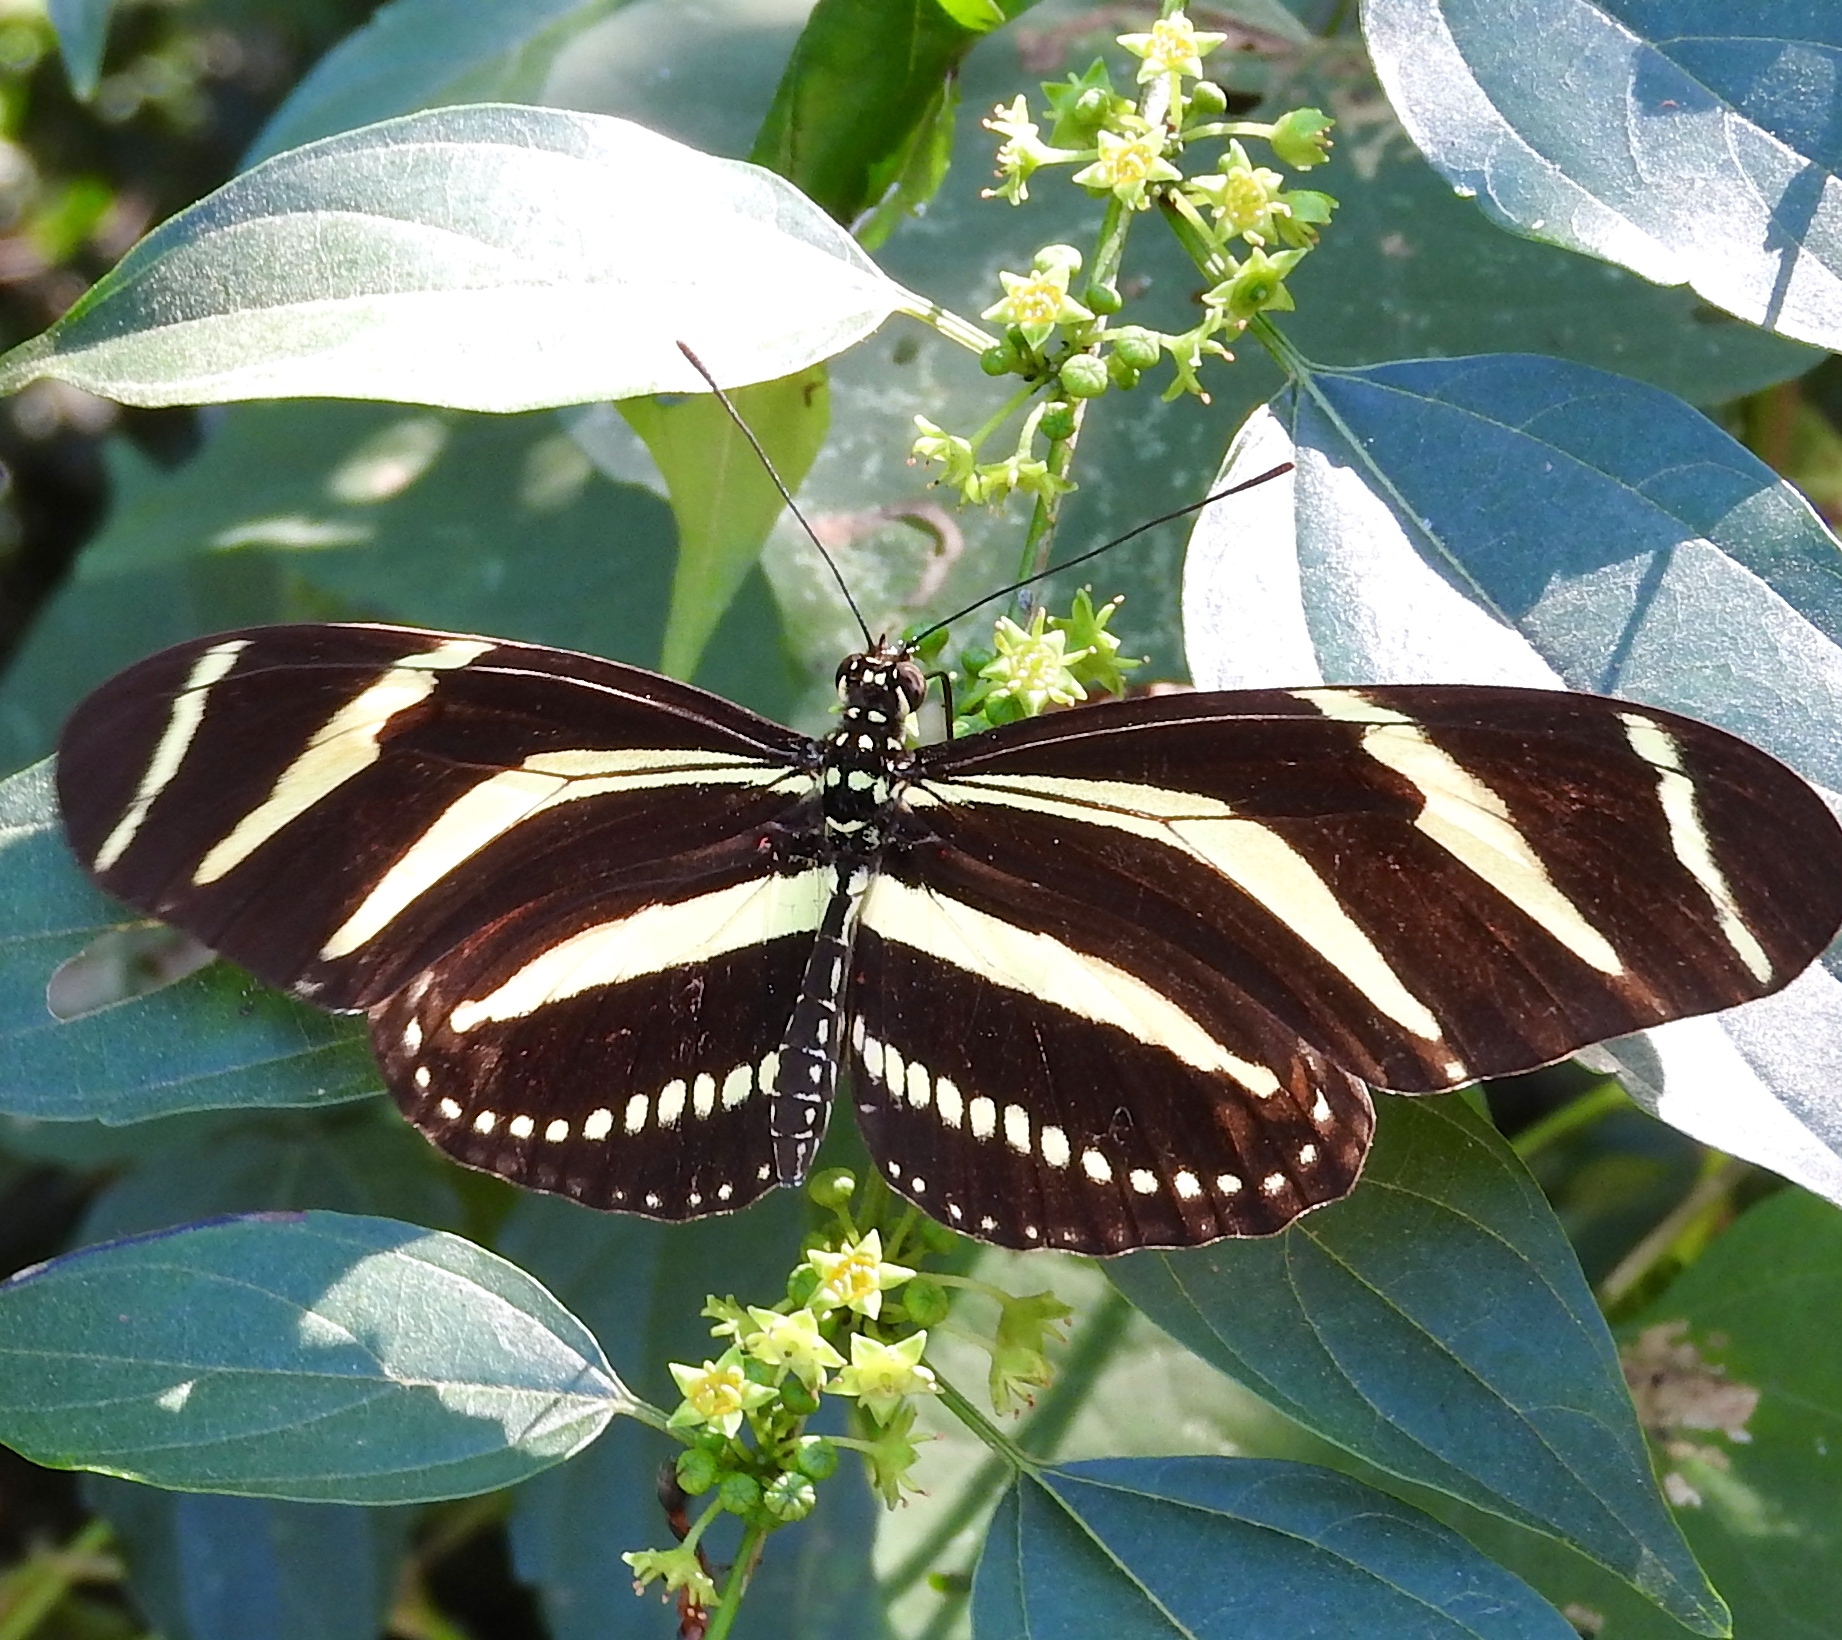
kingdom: Animalia
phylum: Arthropoda
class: Insecta
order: Lepidoptera
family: Nymphalidae
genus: Heliconius
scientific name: Heliconius charithonia
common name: Zebra long wing
